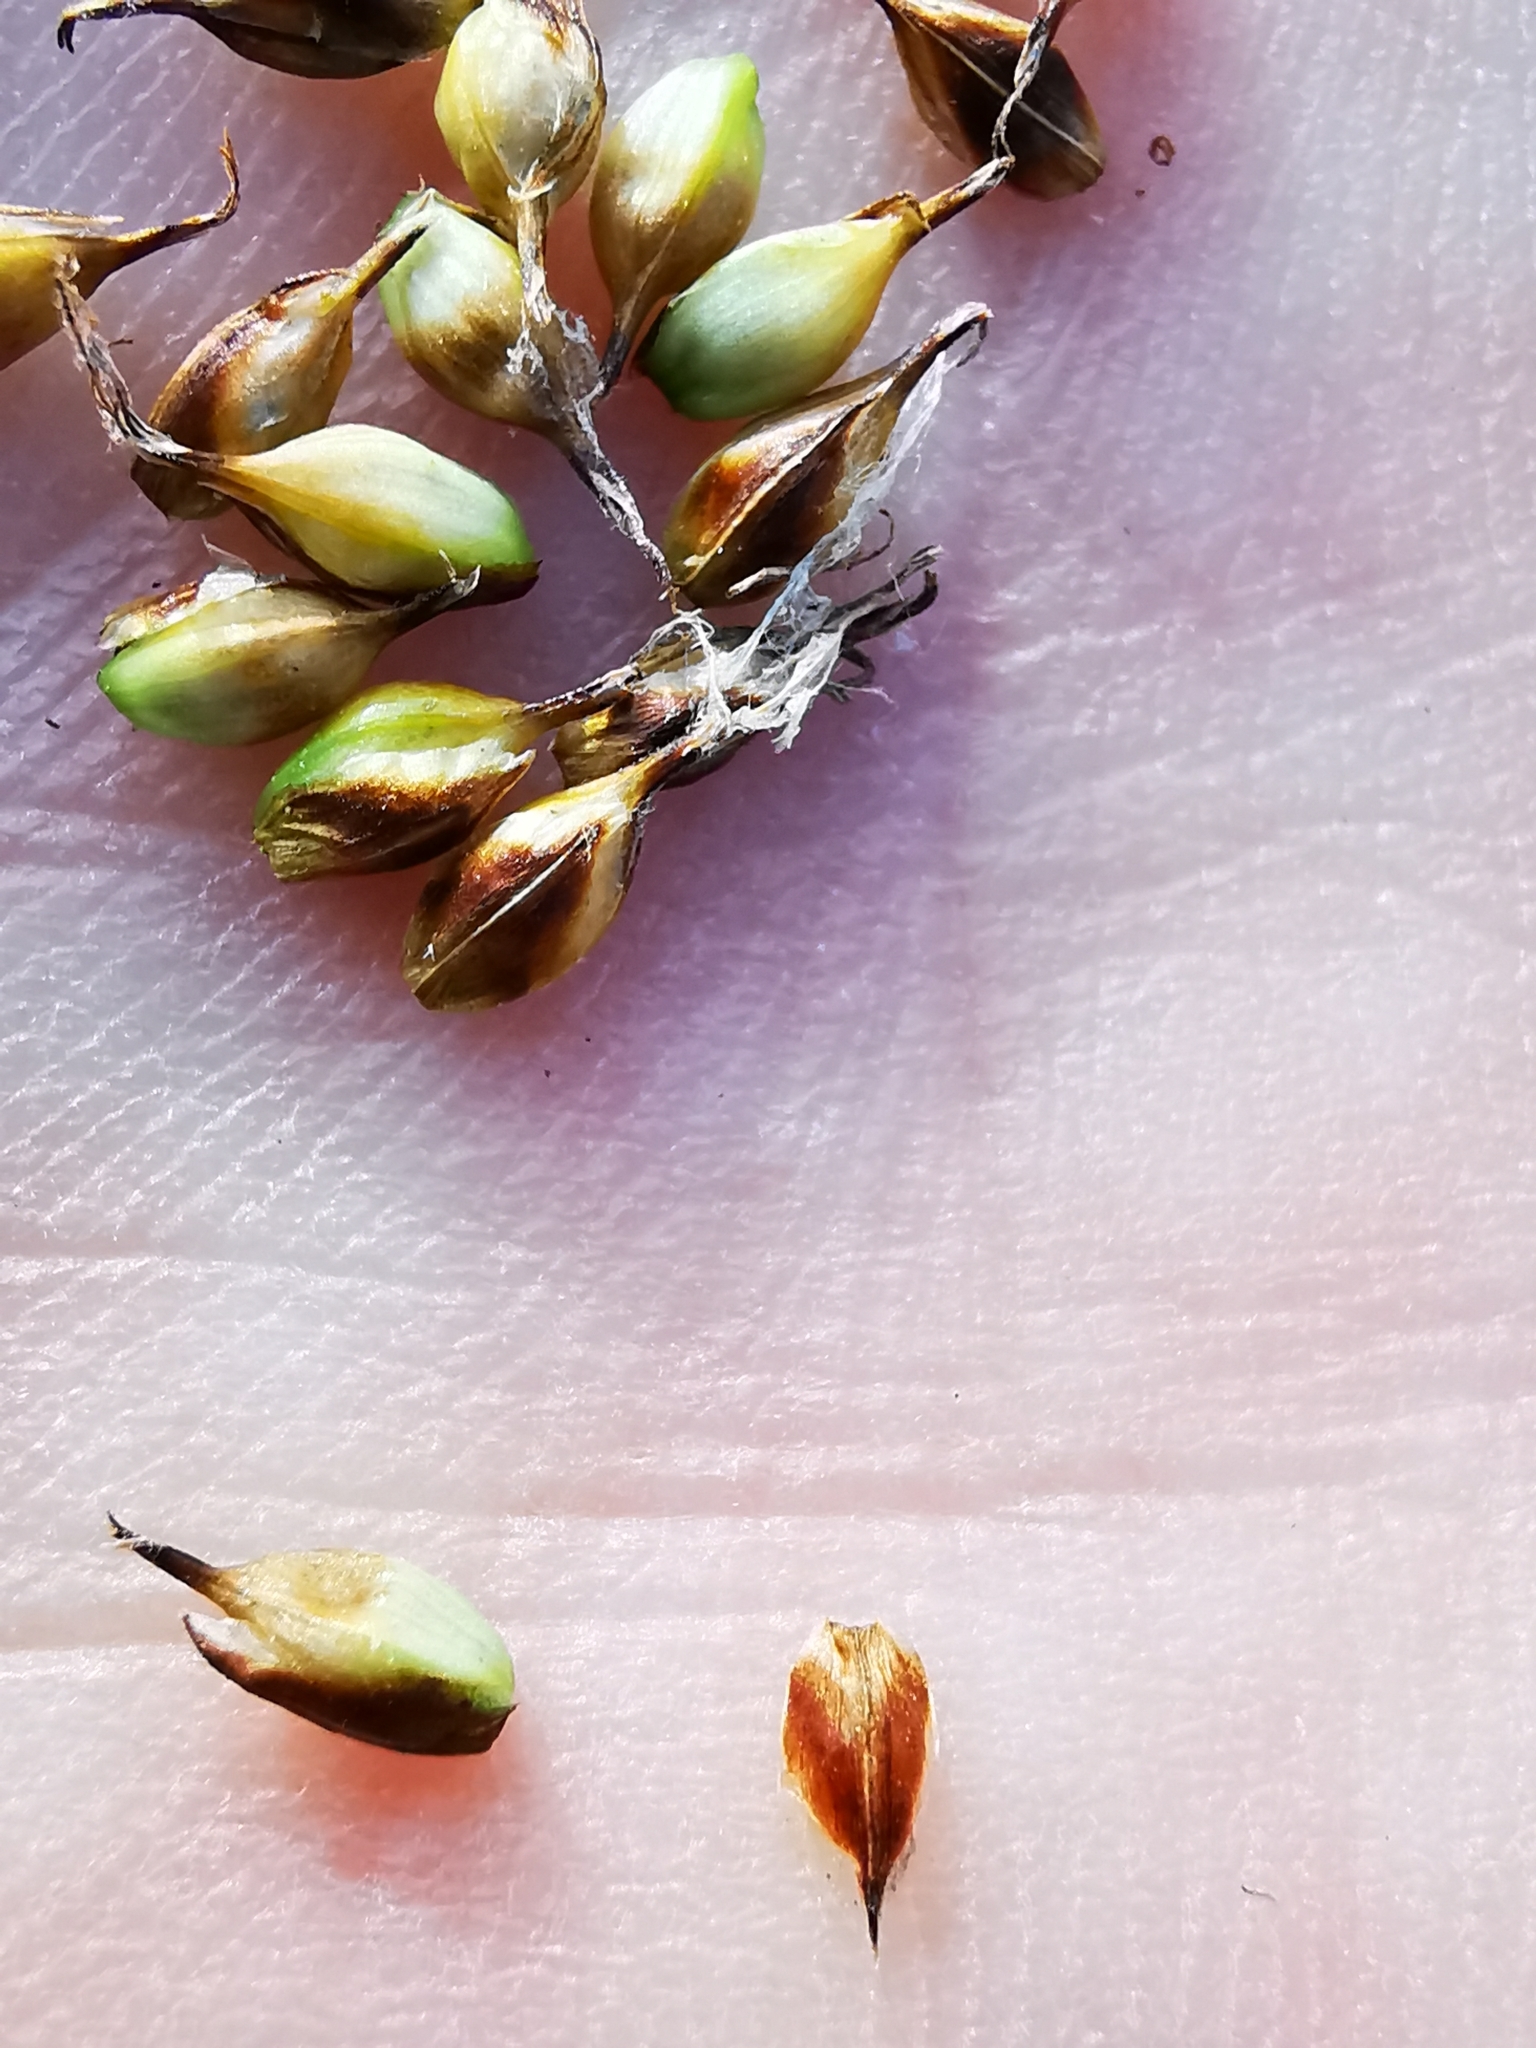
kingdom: Plantae
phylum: Tracheophyta
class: Liliopsida
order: Poales
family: Cyperaceae
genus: Carex
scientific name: Carex hostiana
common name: Tawny sedge
